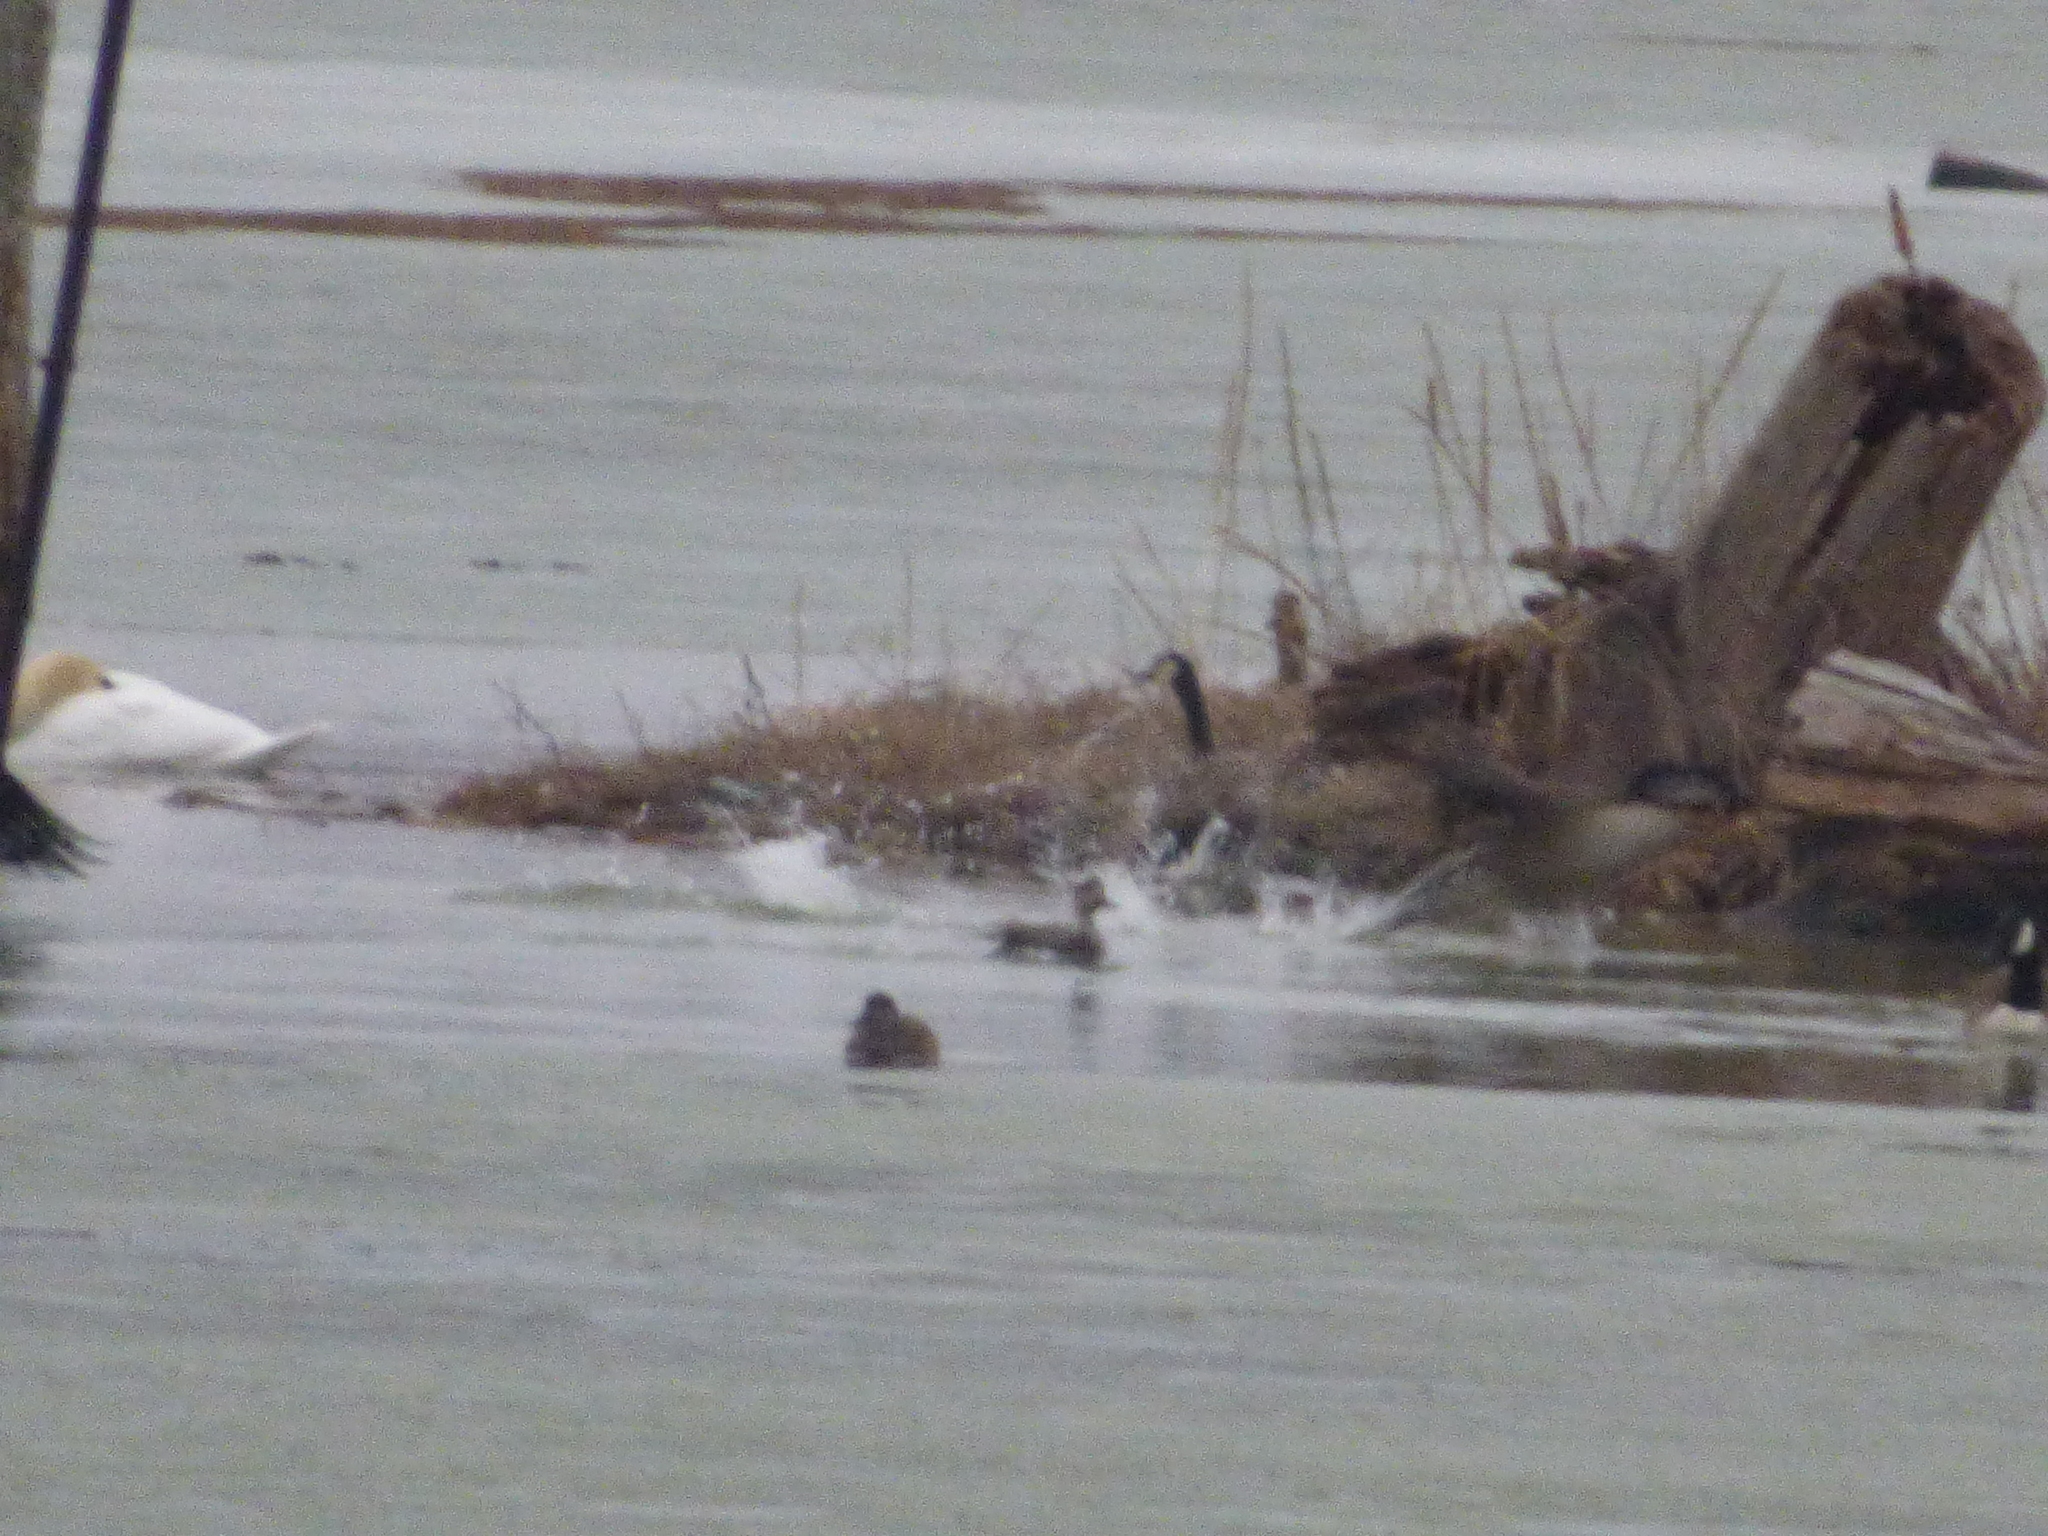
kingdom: Animalia
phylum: Chordata
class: Aves
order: Anseriformes
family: Anatidae
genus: Branta
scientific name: Branta canadensis
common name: Canada goose
